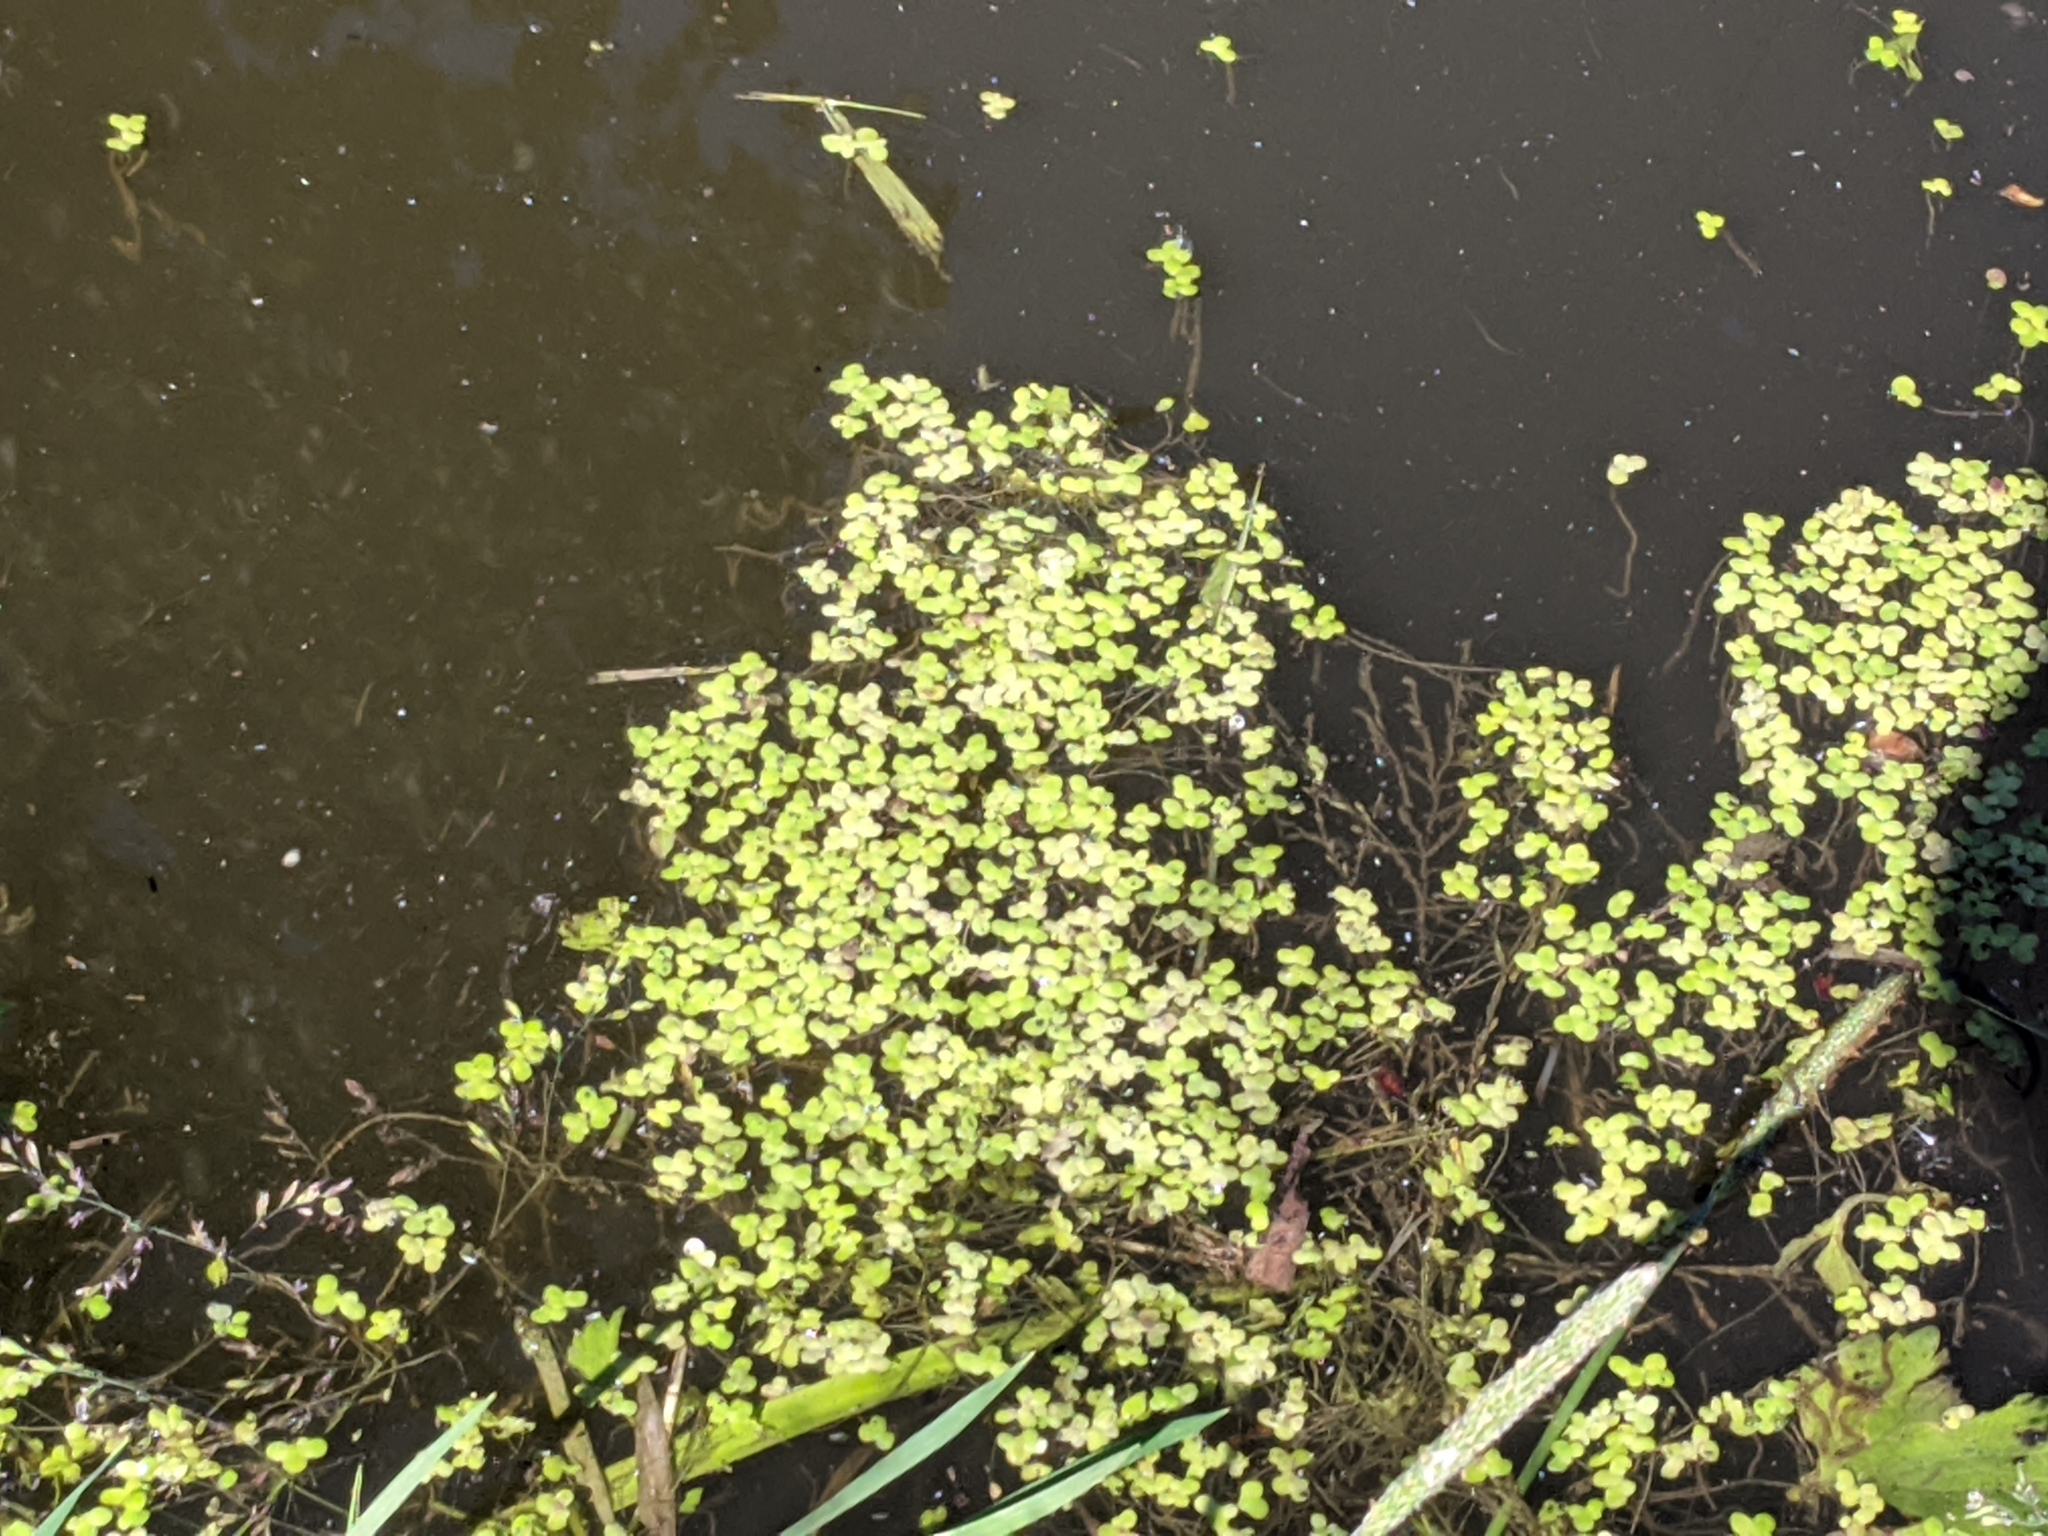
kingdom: Plantae
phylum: Tracheophyta
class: Liliopsida
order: Alismatales
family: Araceae
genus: Lemna
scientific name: Lemna minor
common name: Common duckweed
